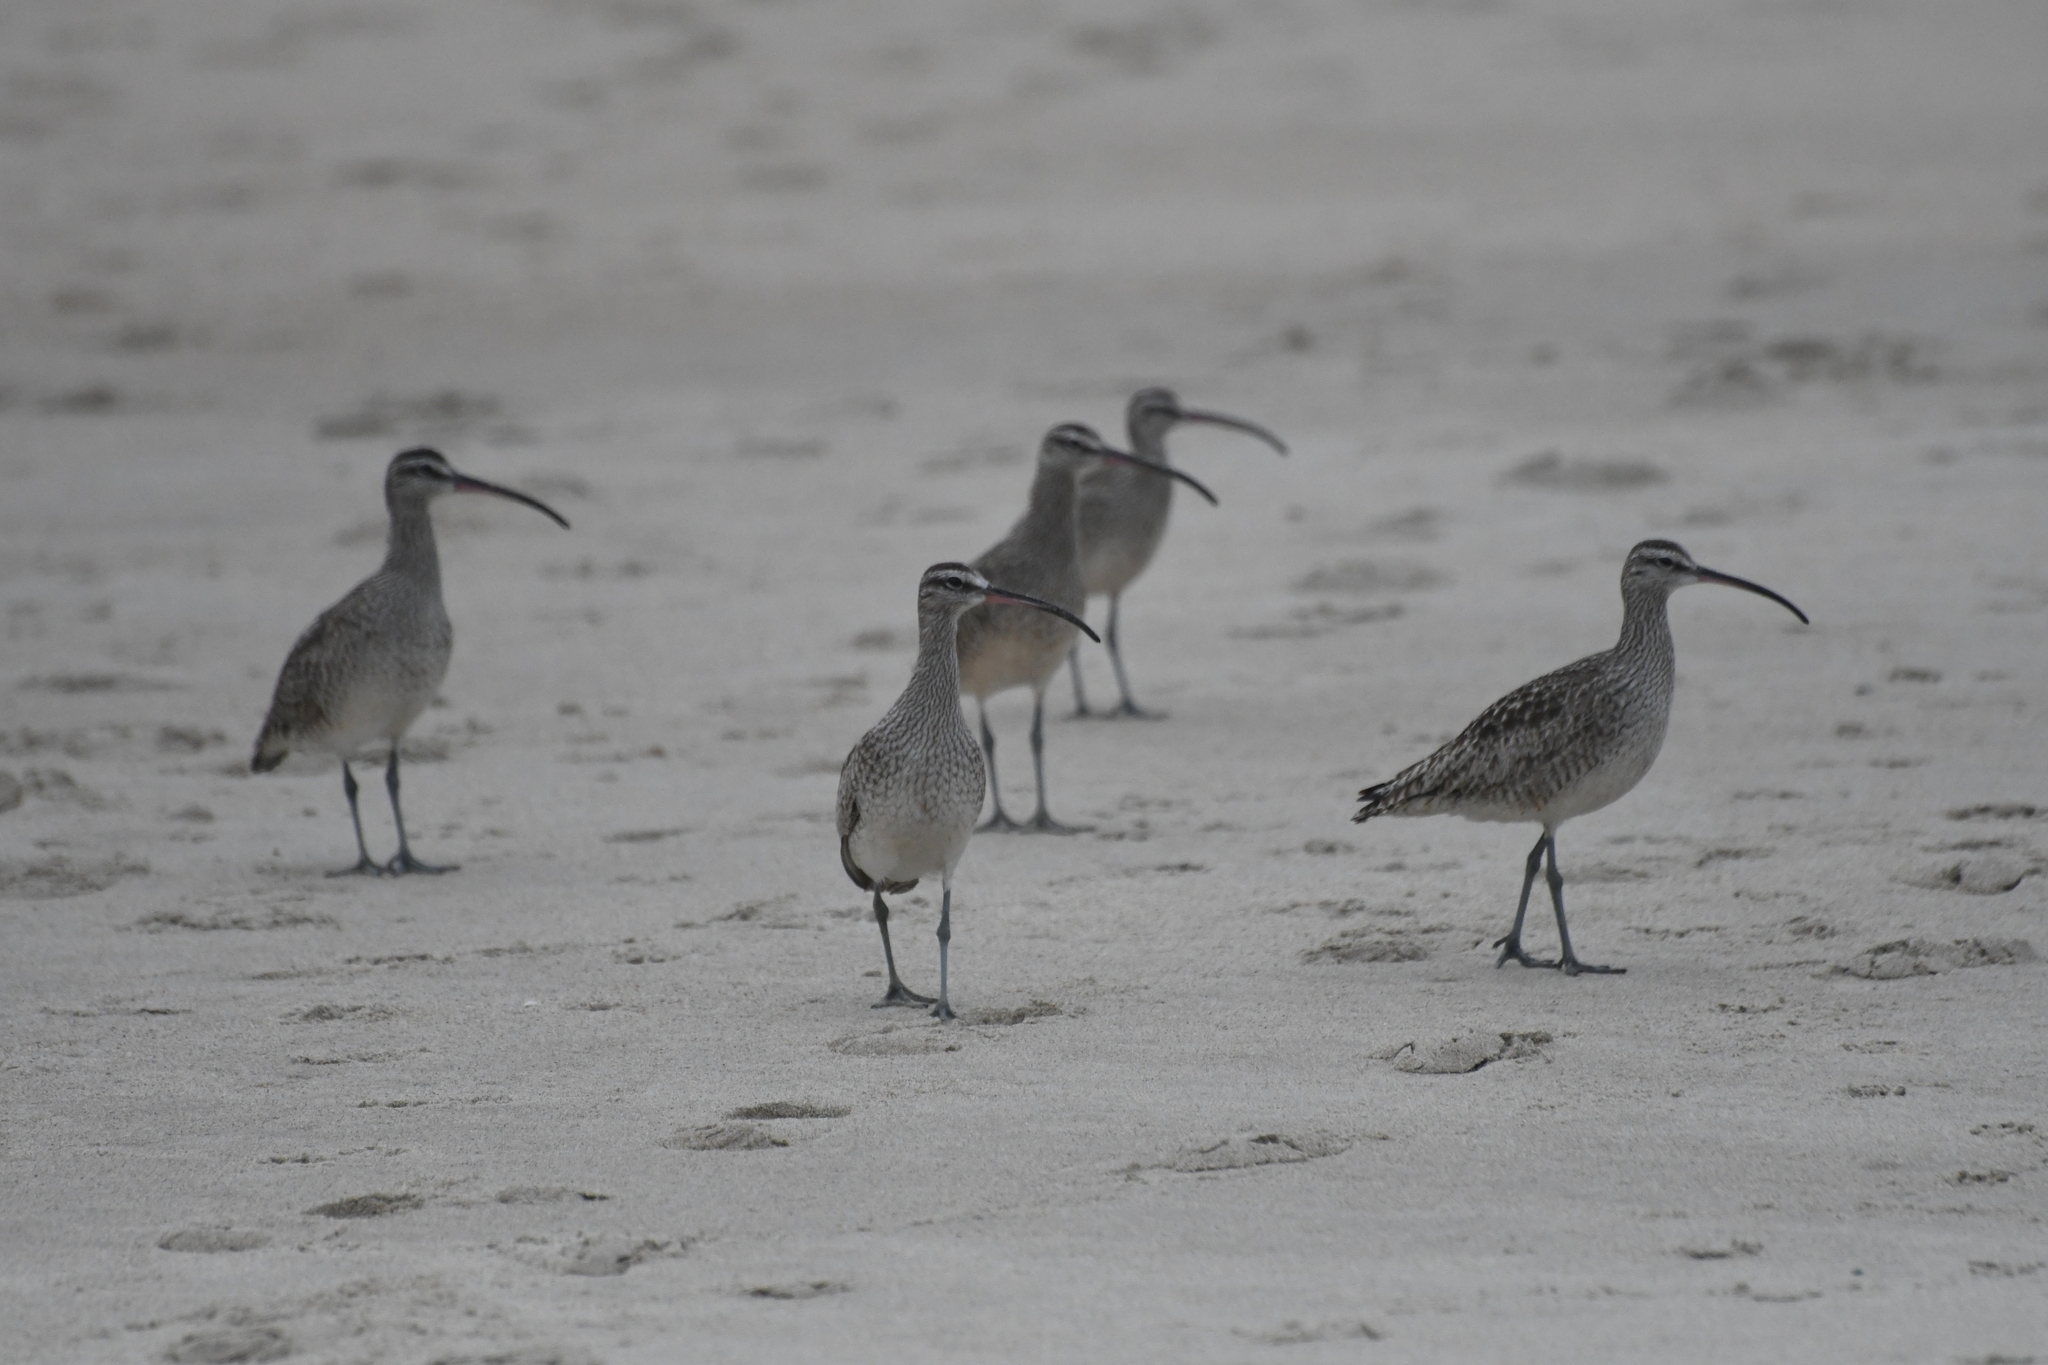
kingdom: Animalia
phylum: Chordata
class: Aves
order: Charadriiformes
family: Scolopacidae
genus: Numenius
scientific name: Numenius phaeopus
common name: Whimbrel
